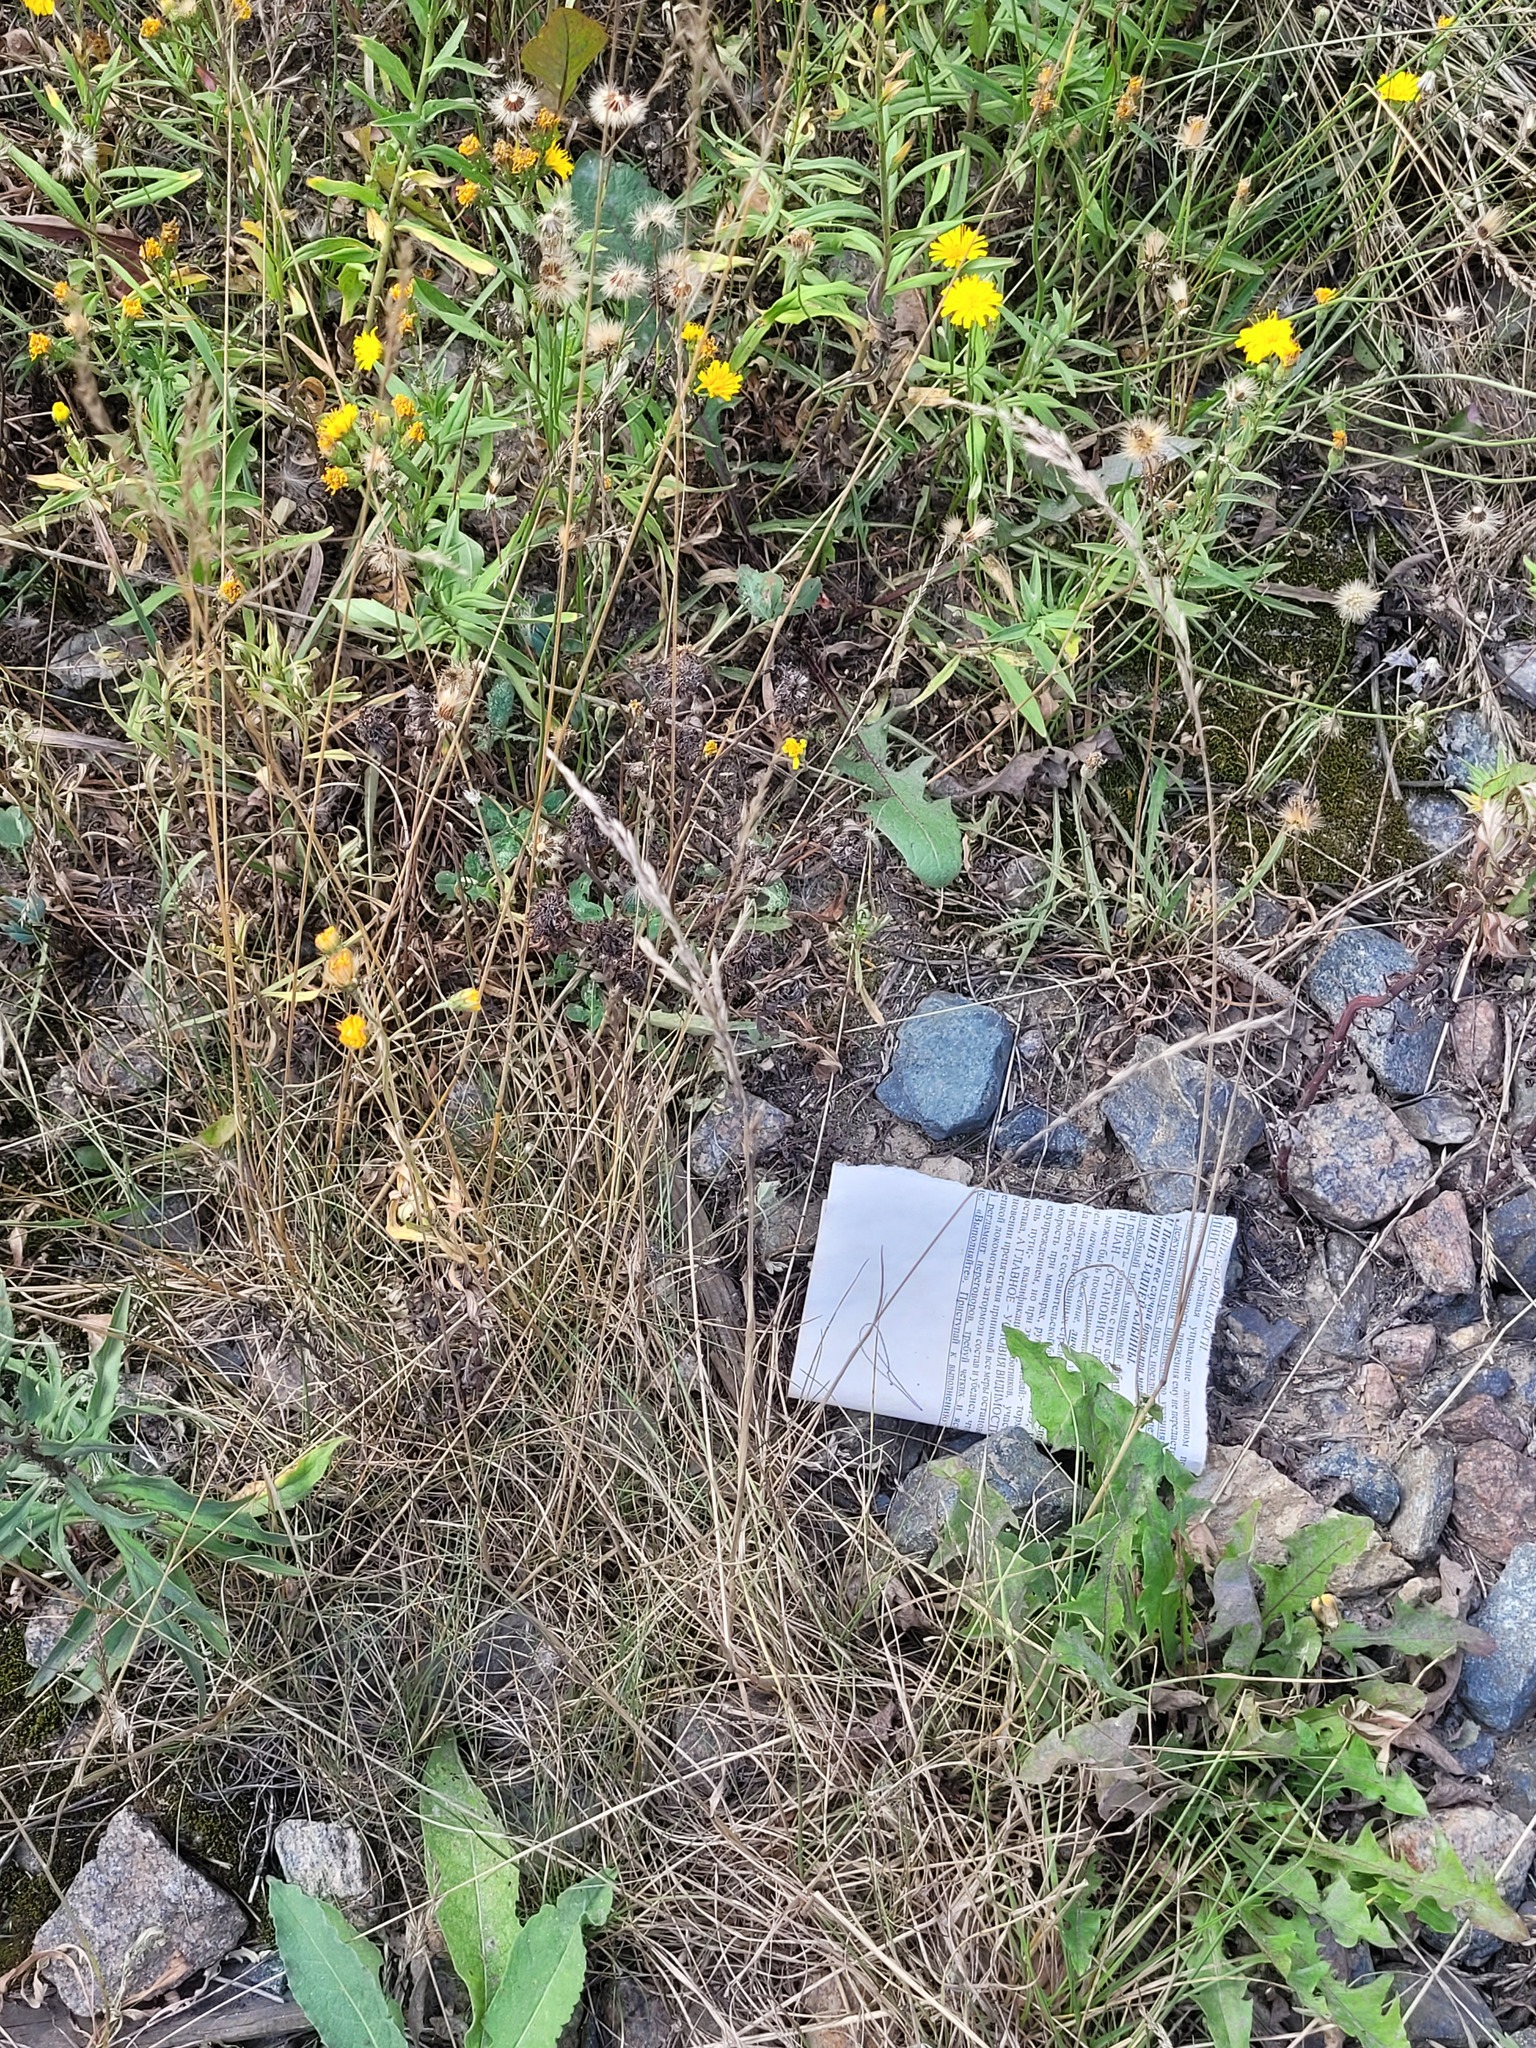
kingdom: Plantae
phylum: Tracheophyta
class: Liliopsida
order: Poales
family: Poaceae
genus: Festuca
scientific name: Festuca rubra
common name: Red fescue
